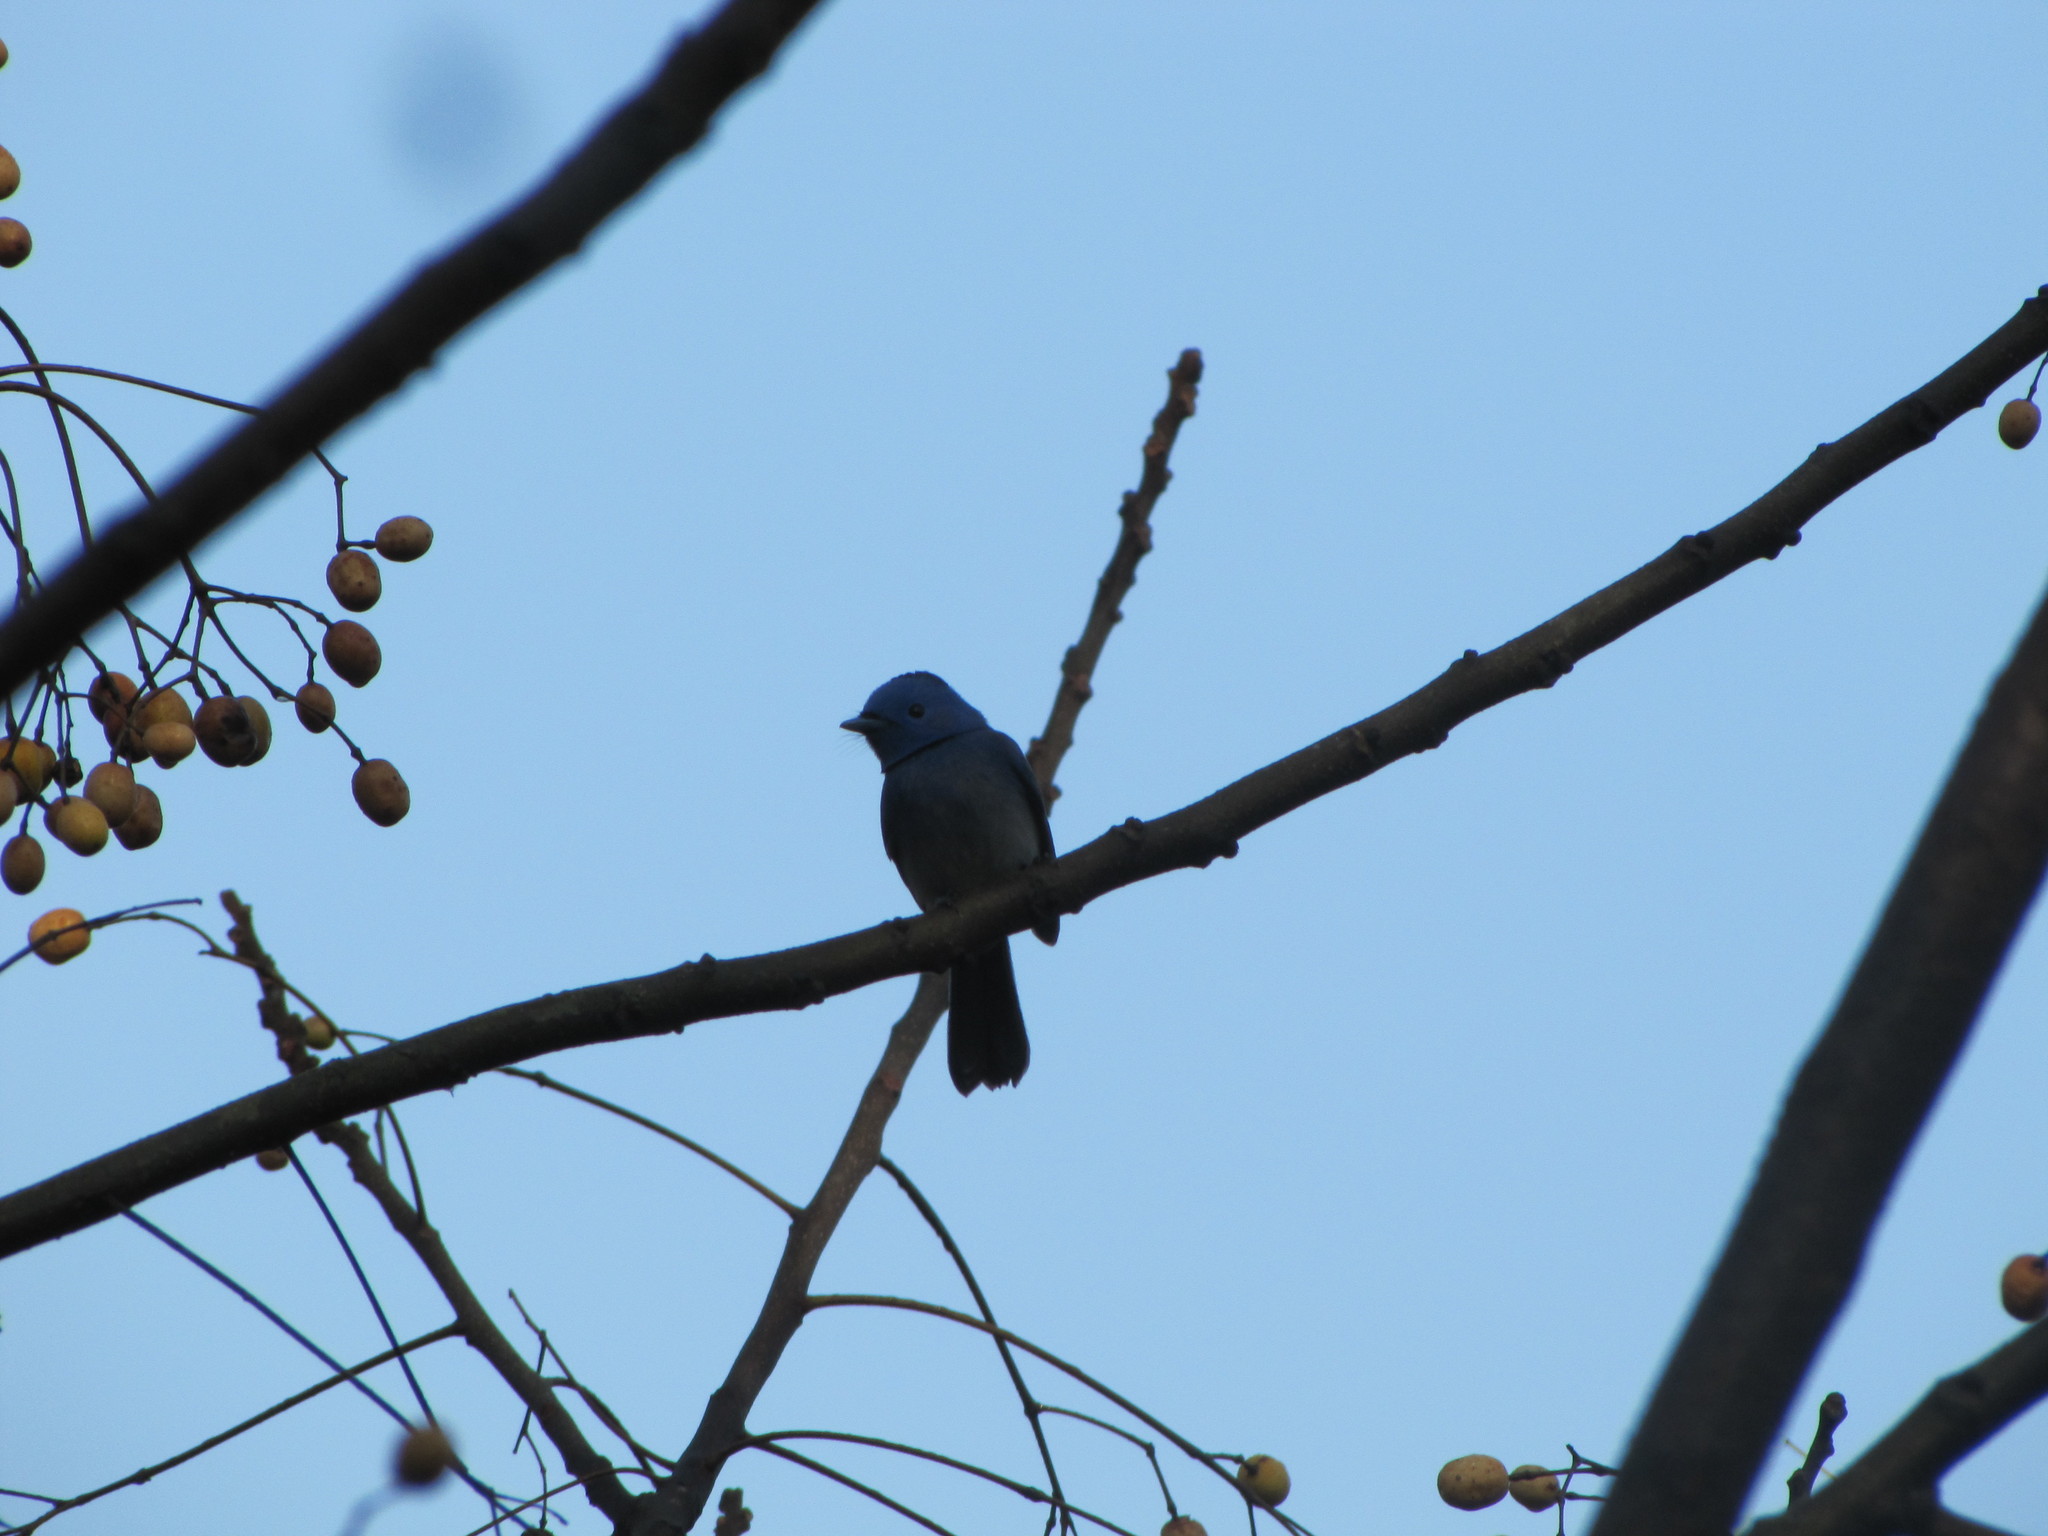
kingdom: Animalia
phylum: Chordata
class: Aves
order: Passeriformes
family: Monarchidae
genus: Hypothymis
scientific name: Hypothymis azurea
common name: Black-naped monarch
